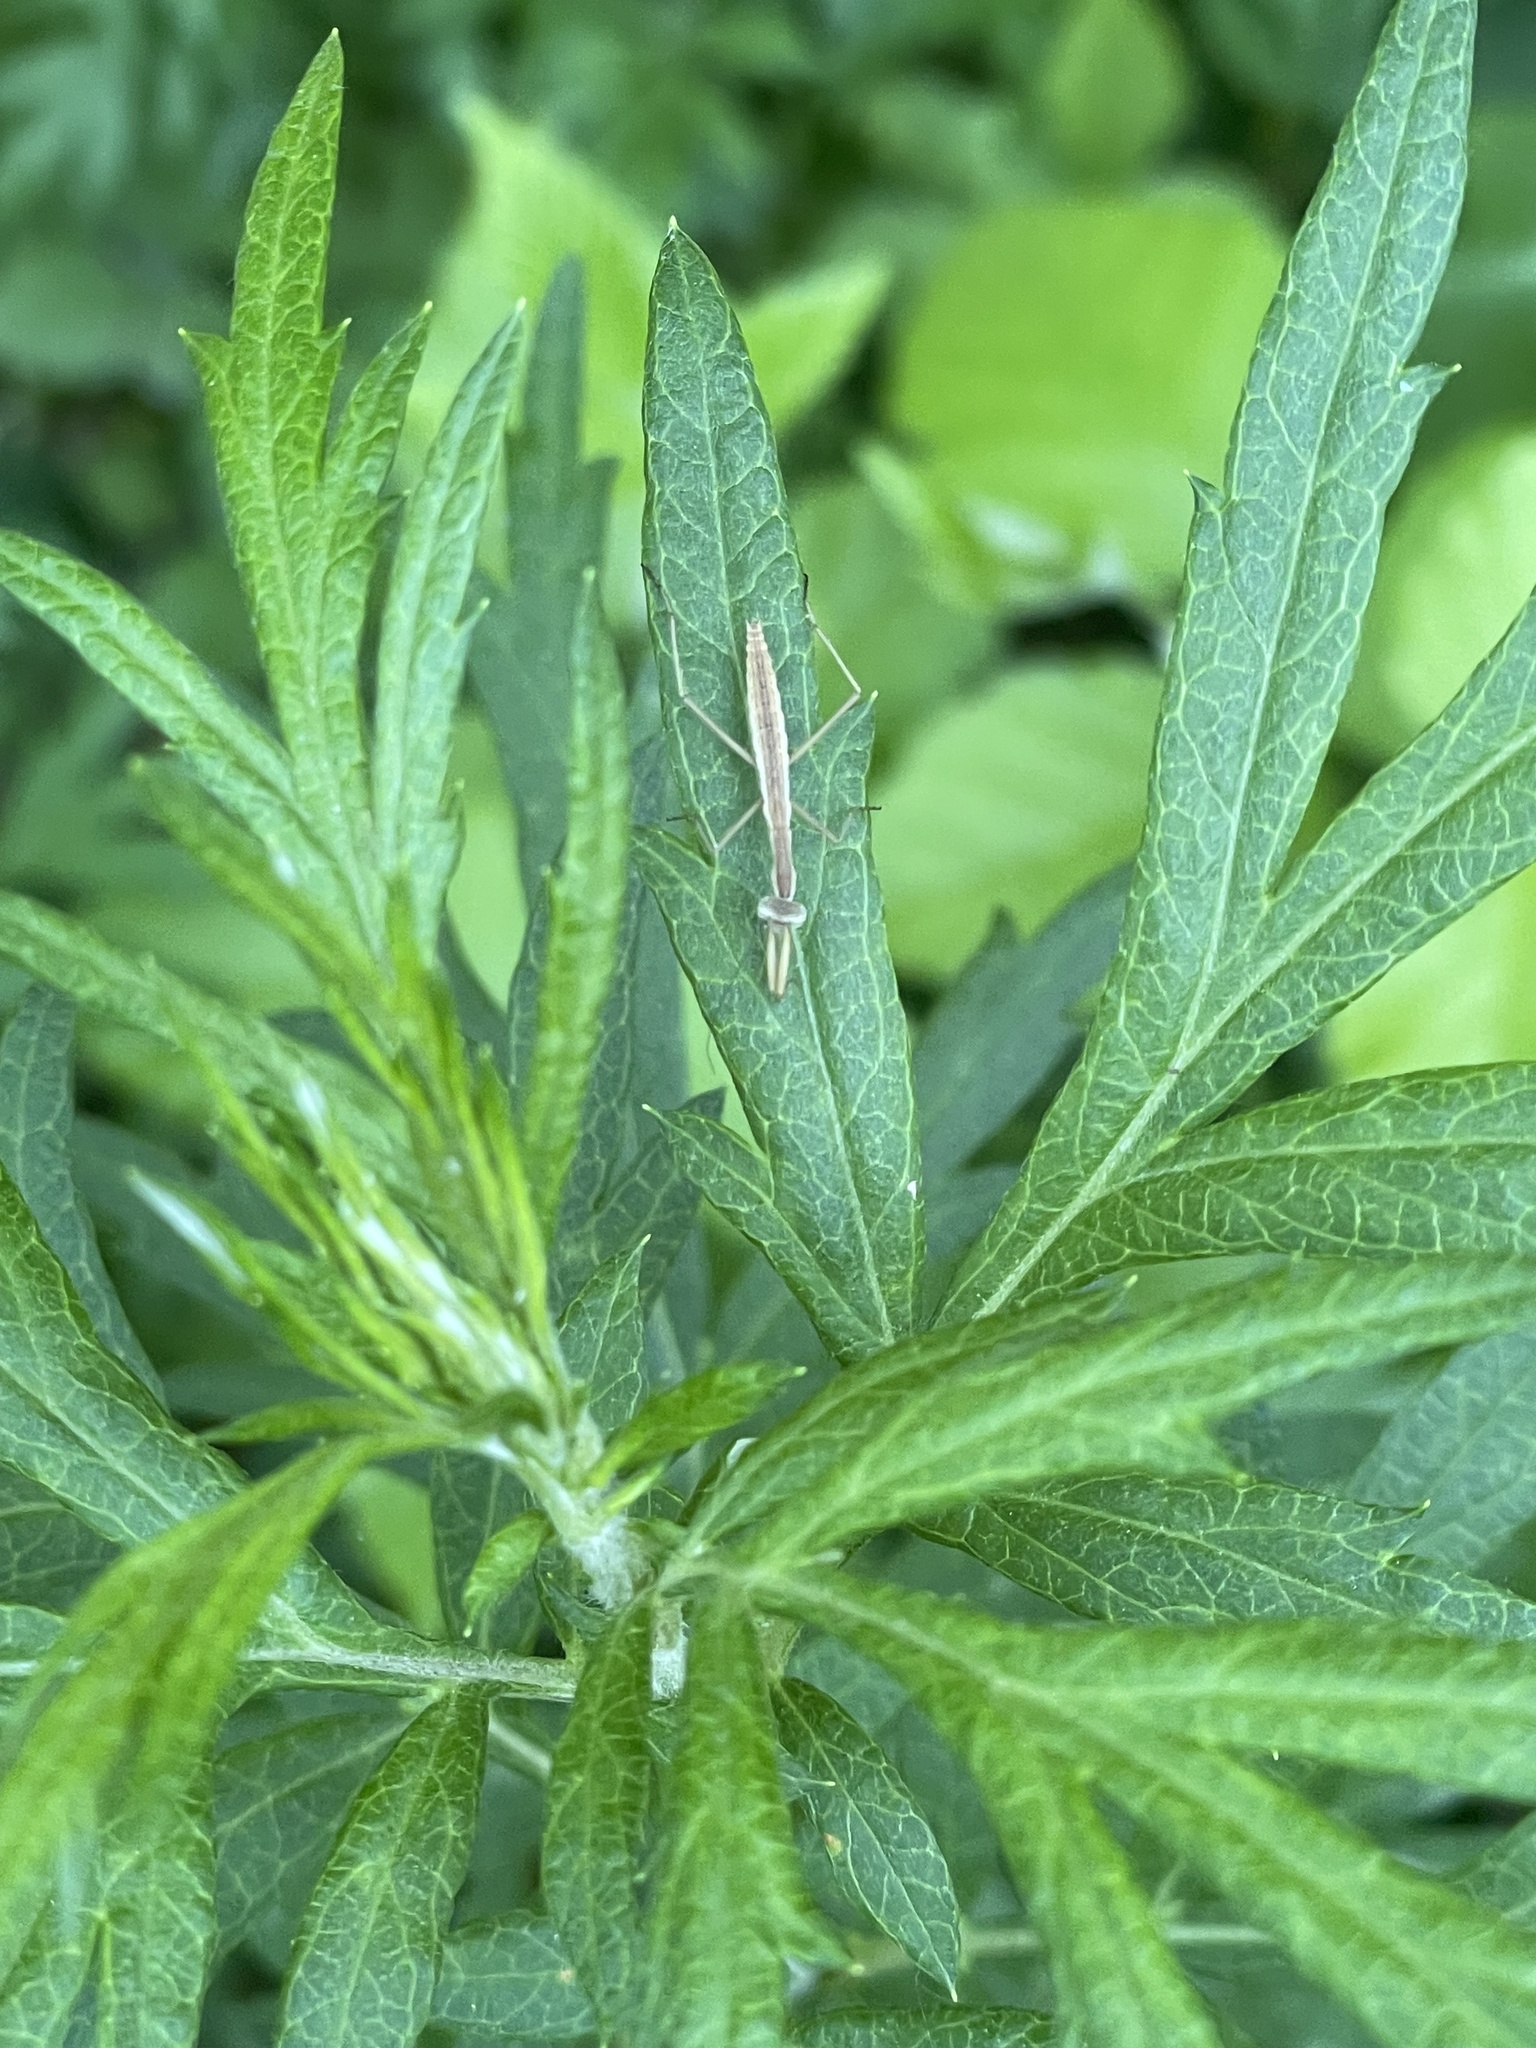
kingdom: Animalia
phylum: Arthropoda
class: Insecta
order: Mantodea
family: Mantidae
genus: Tenodera
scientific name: Tenodera sinensis
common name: Chinese mantis
